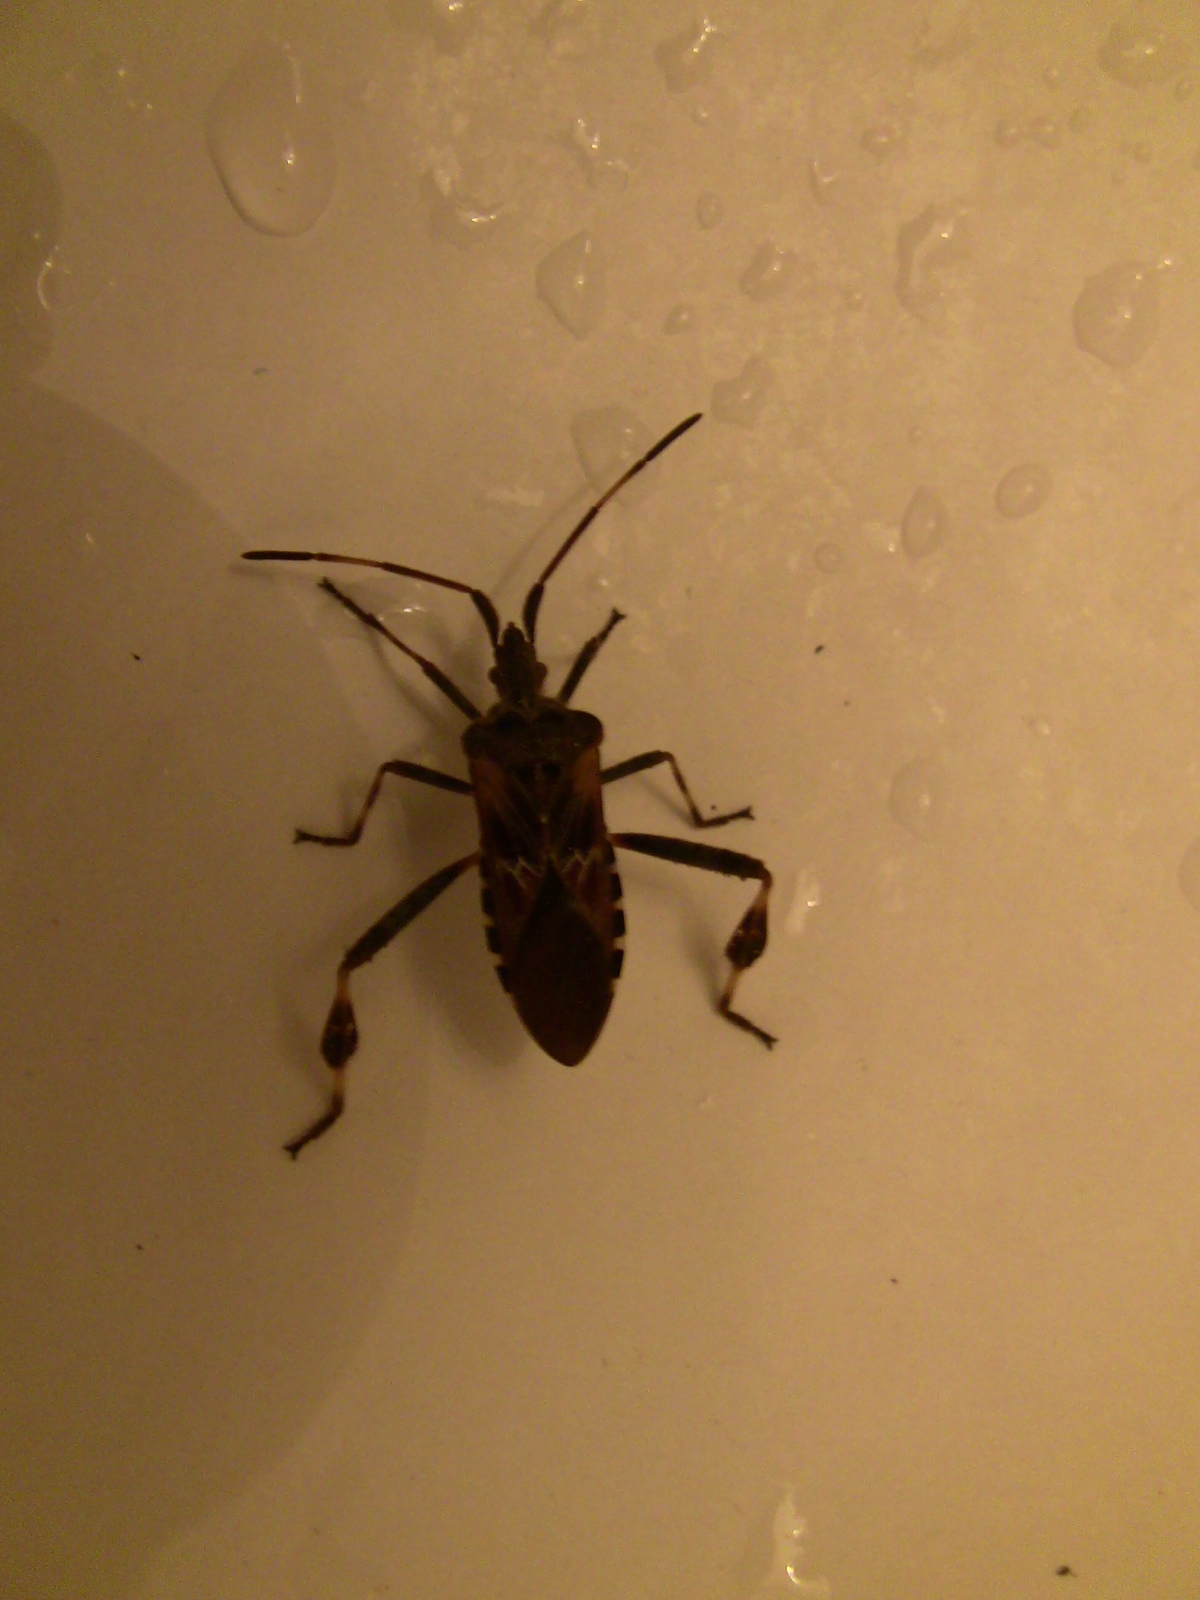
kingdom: Animalia
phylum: Arthropoda
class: Insecta
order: Hemiptera
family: Coreidae
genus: Leptoglossus
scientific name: Leptoglossus occidentalis
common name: Western conifer-seed bug
